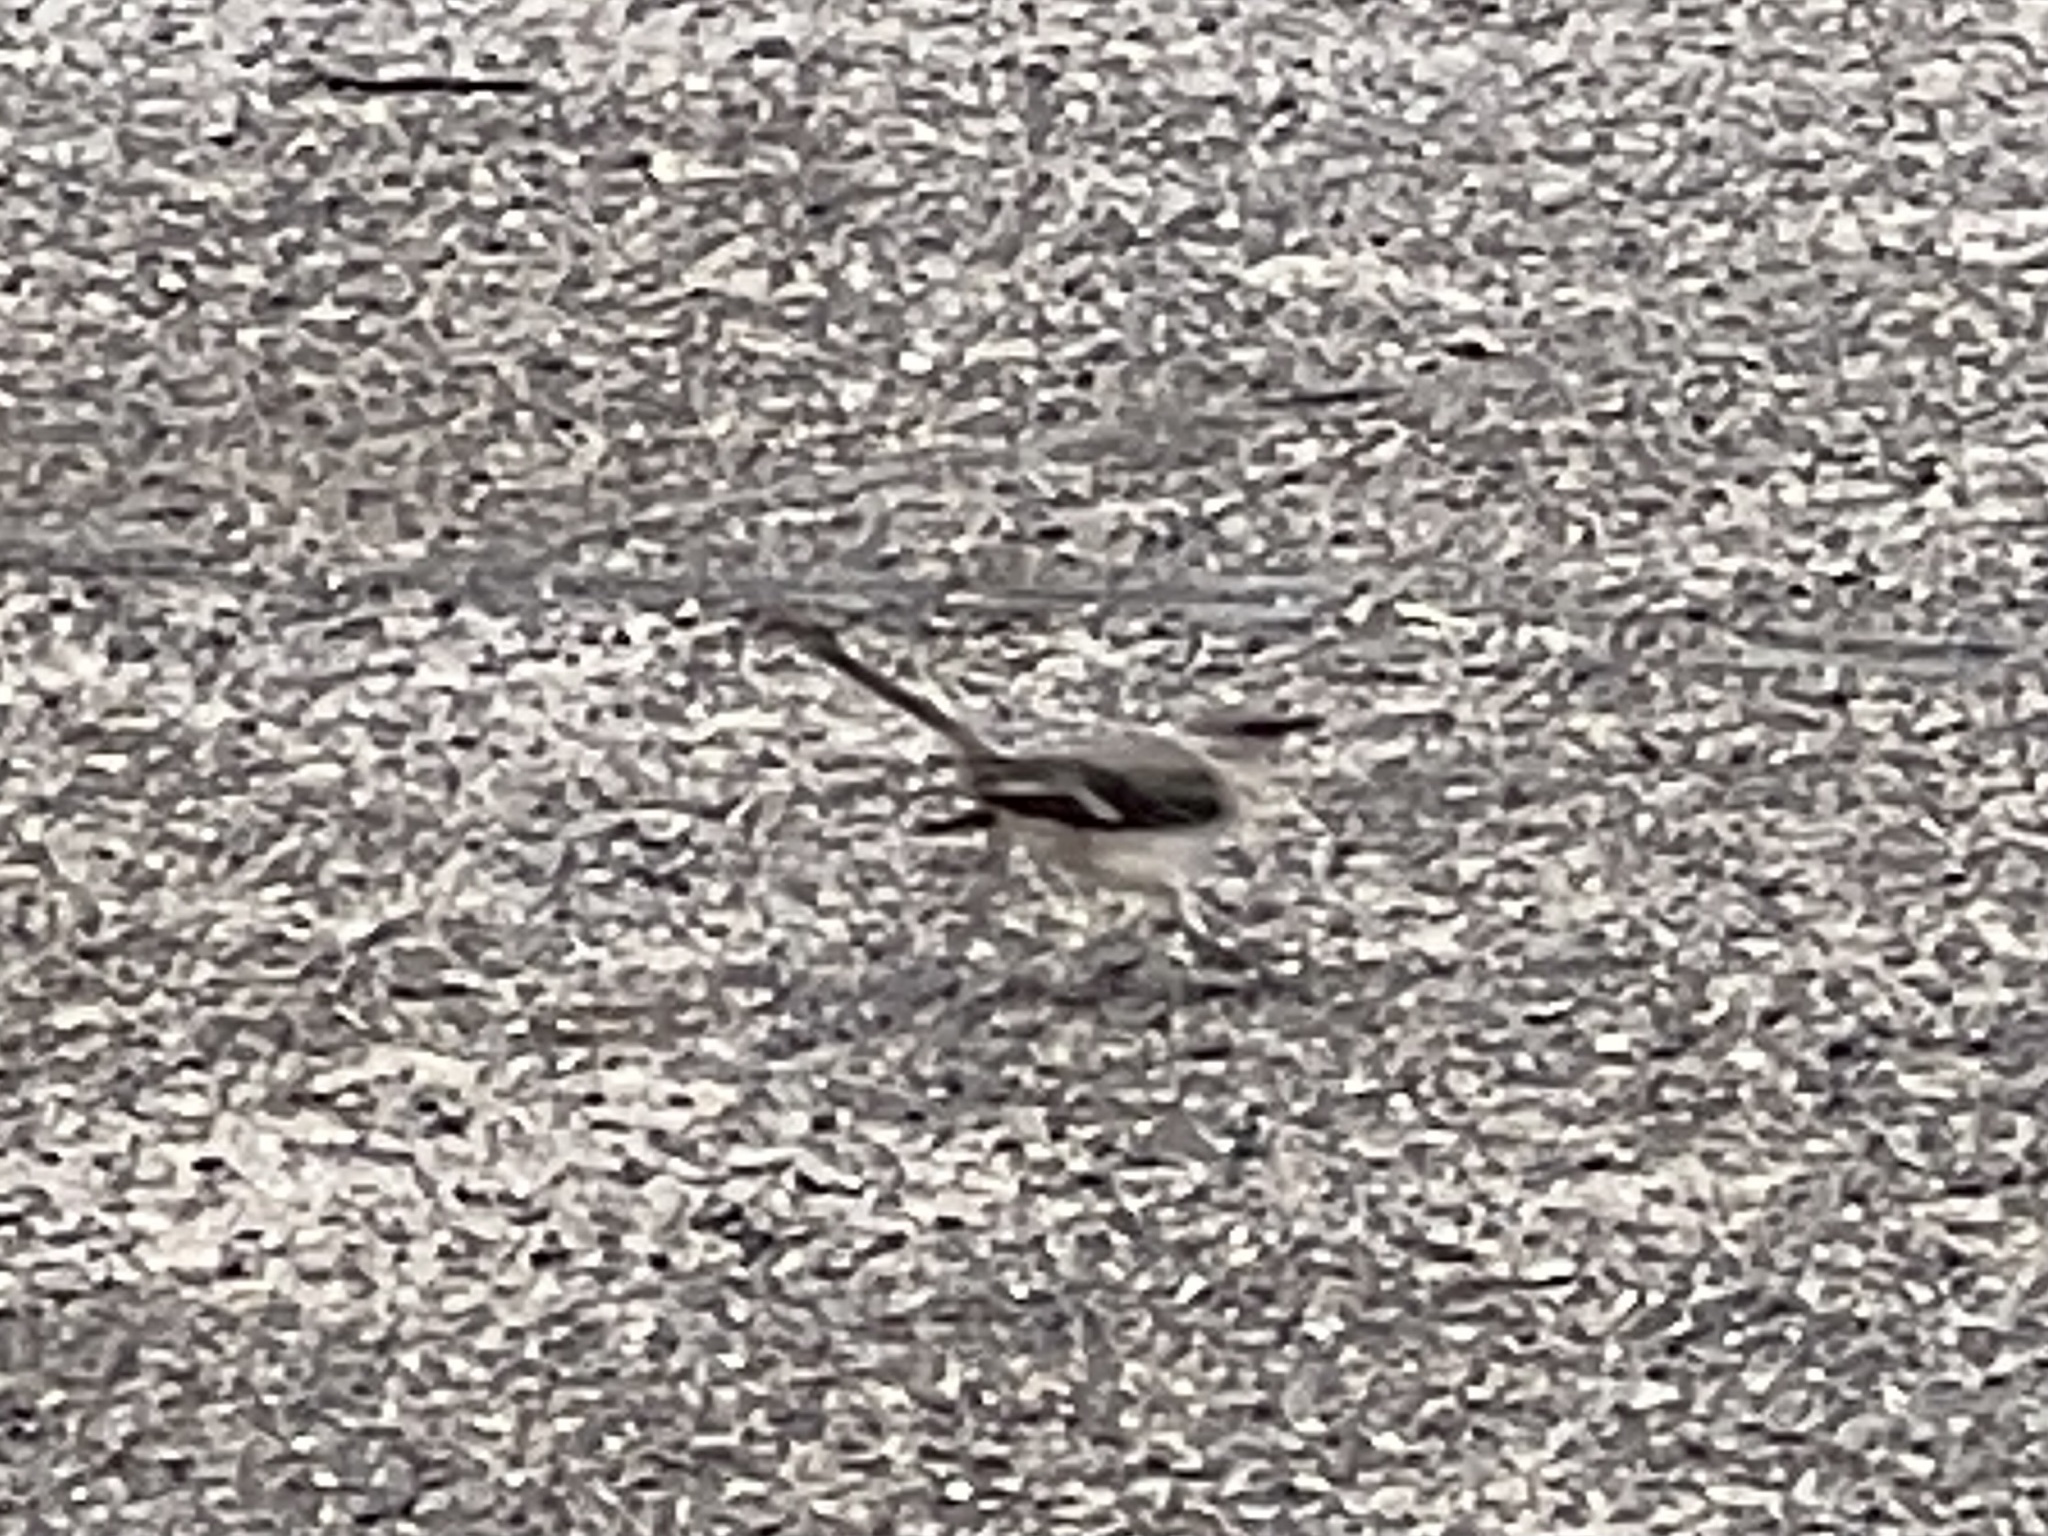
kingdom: Animalia
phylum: Chordata
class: Aves
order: Passeriformes
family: Mimidae
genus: Mimus
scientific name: Mimus polyglottos
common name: Northern mockingbird
